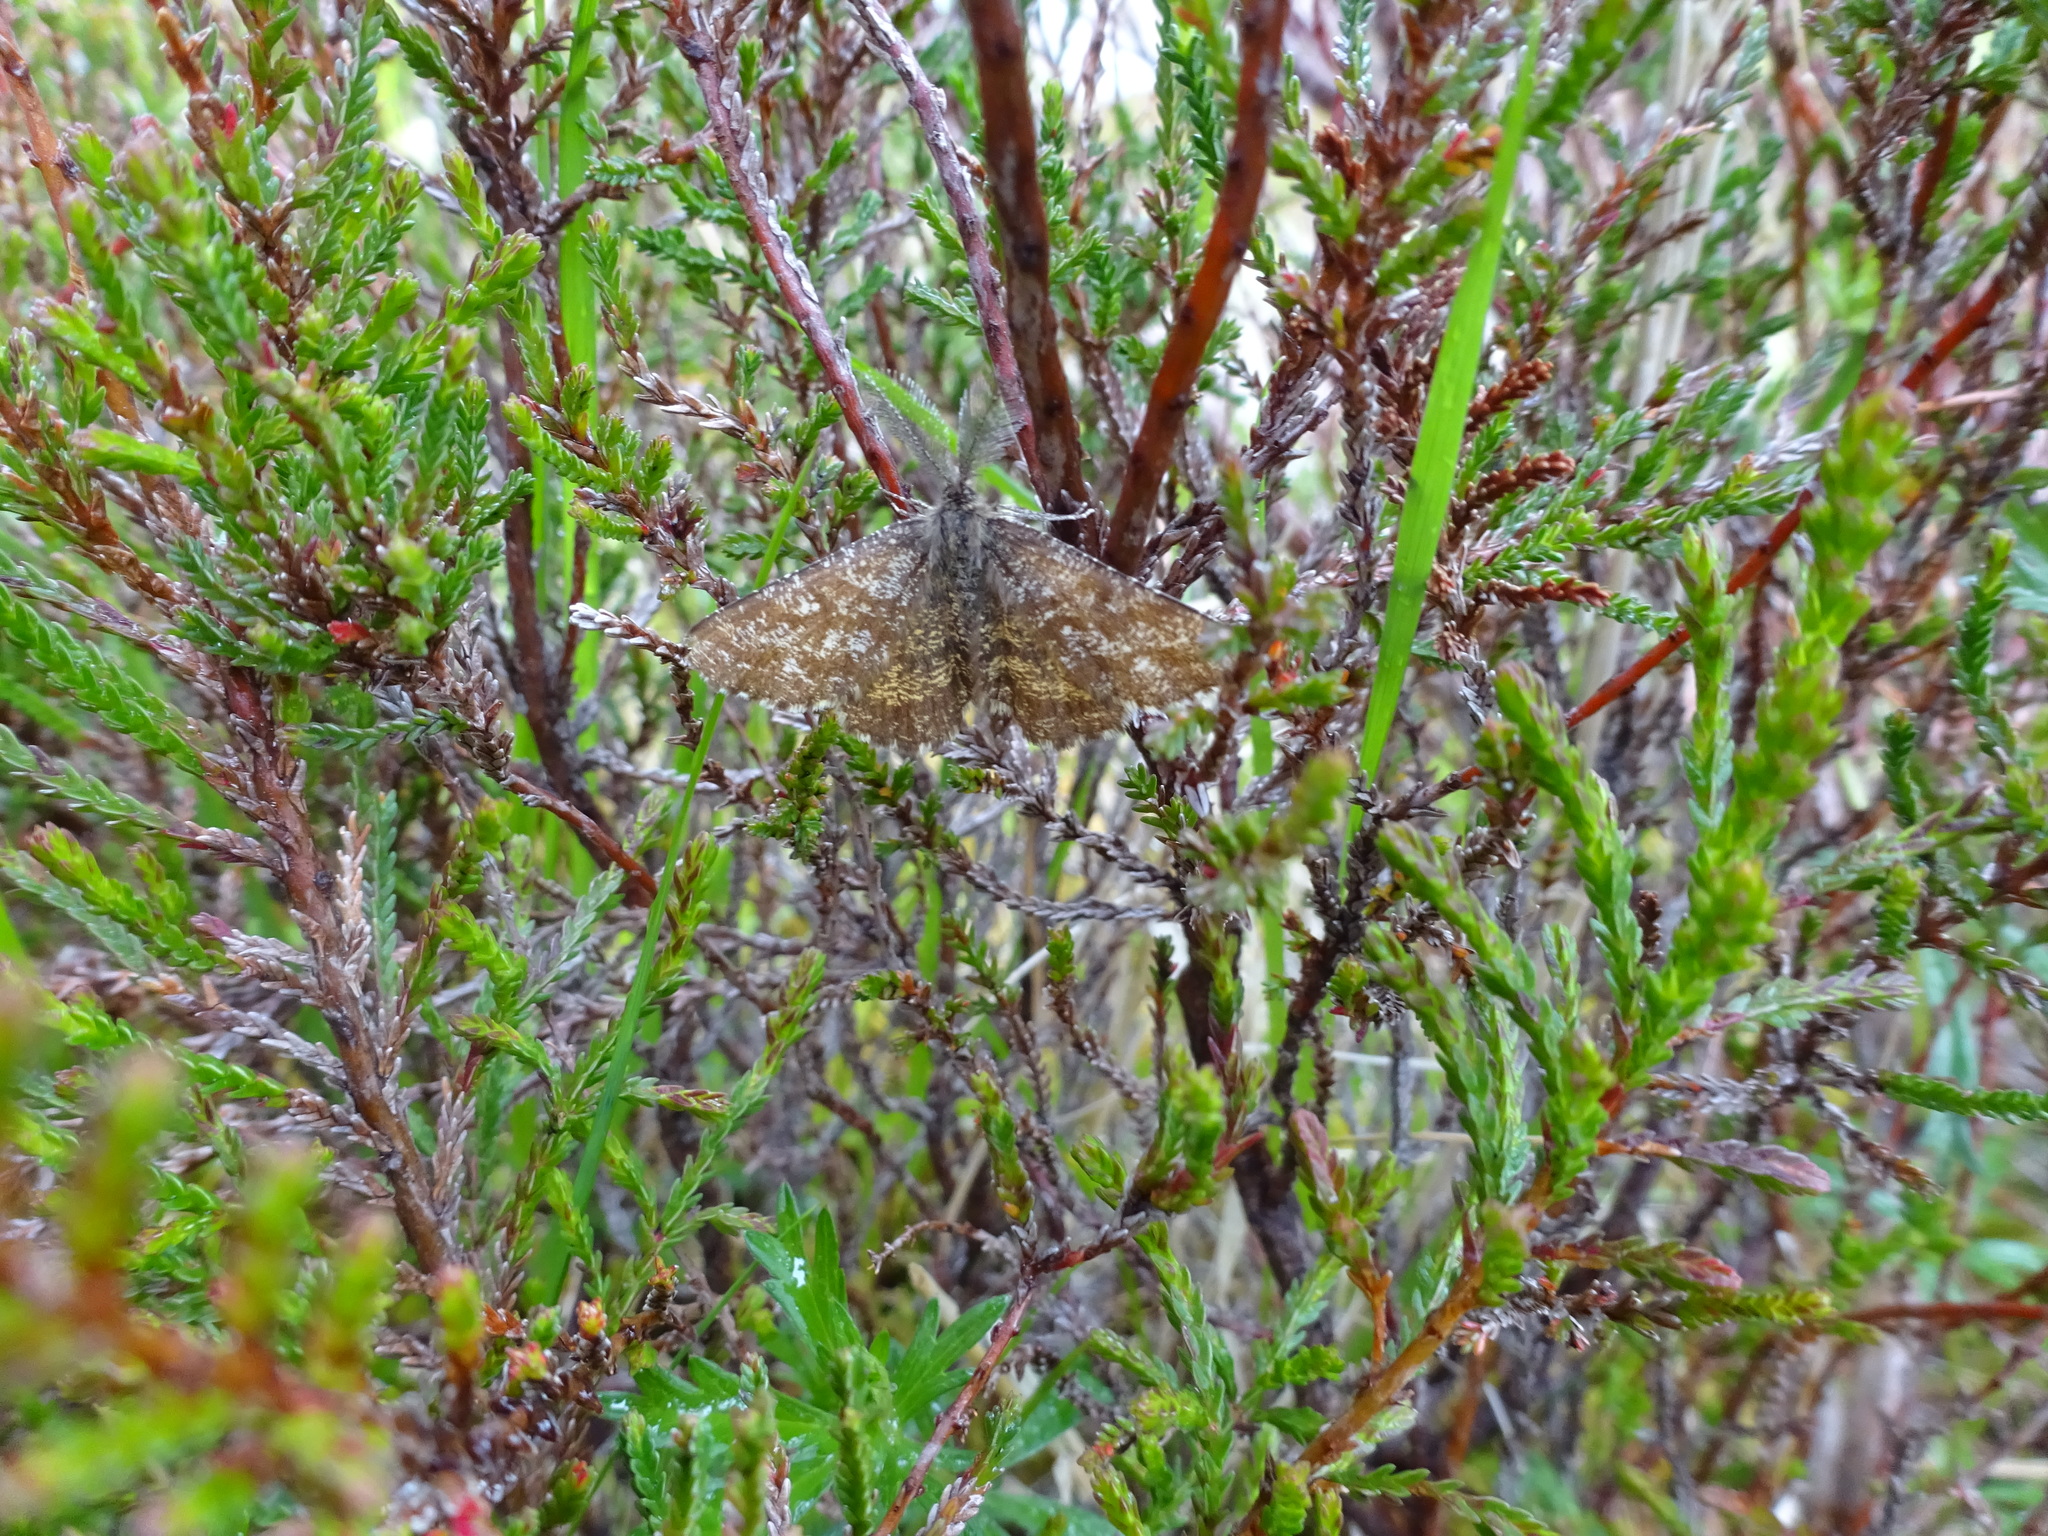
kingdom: Animalia
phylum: Arthropoda
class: Insecta
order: Lepidoptera
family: Geometridae
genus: Ematurga
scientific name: Ematurga atomaria
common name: Common heath
